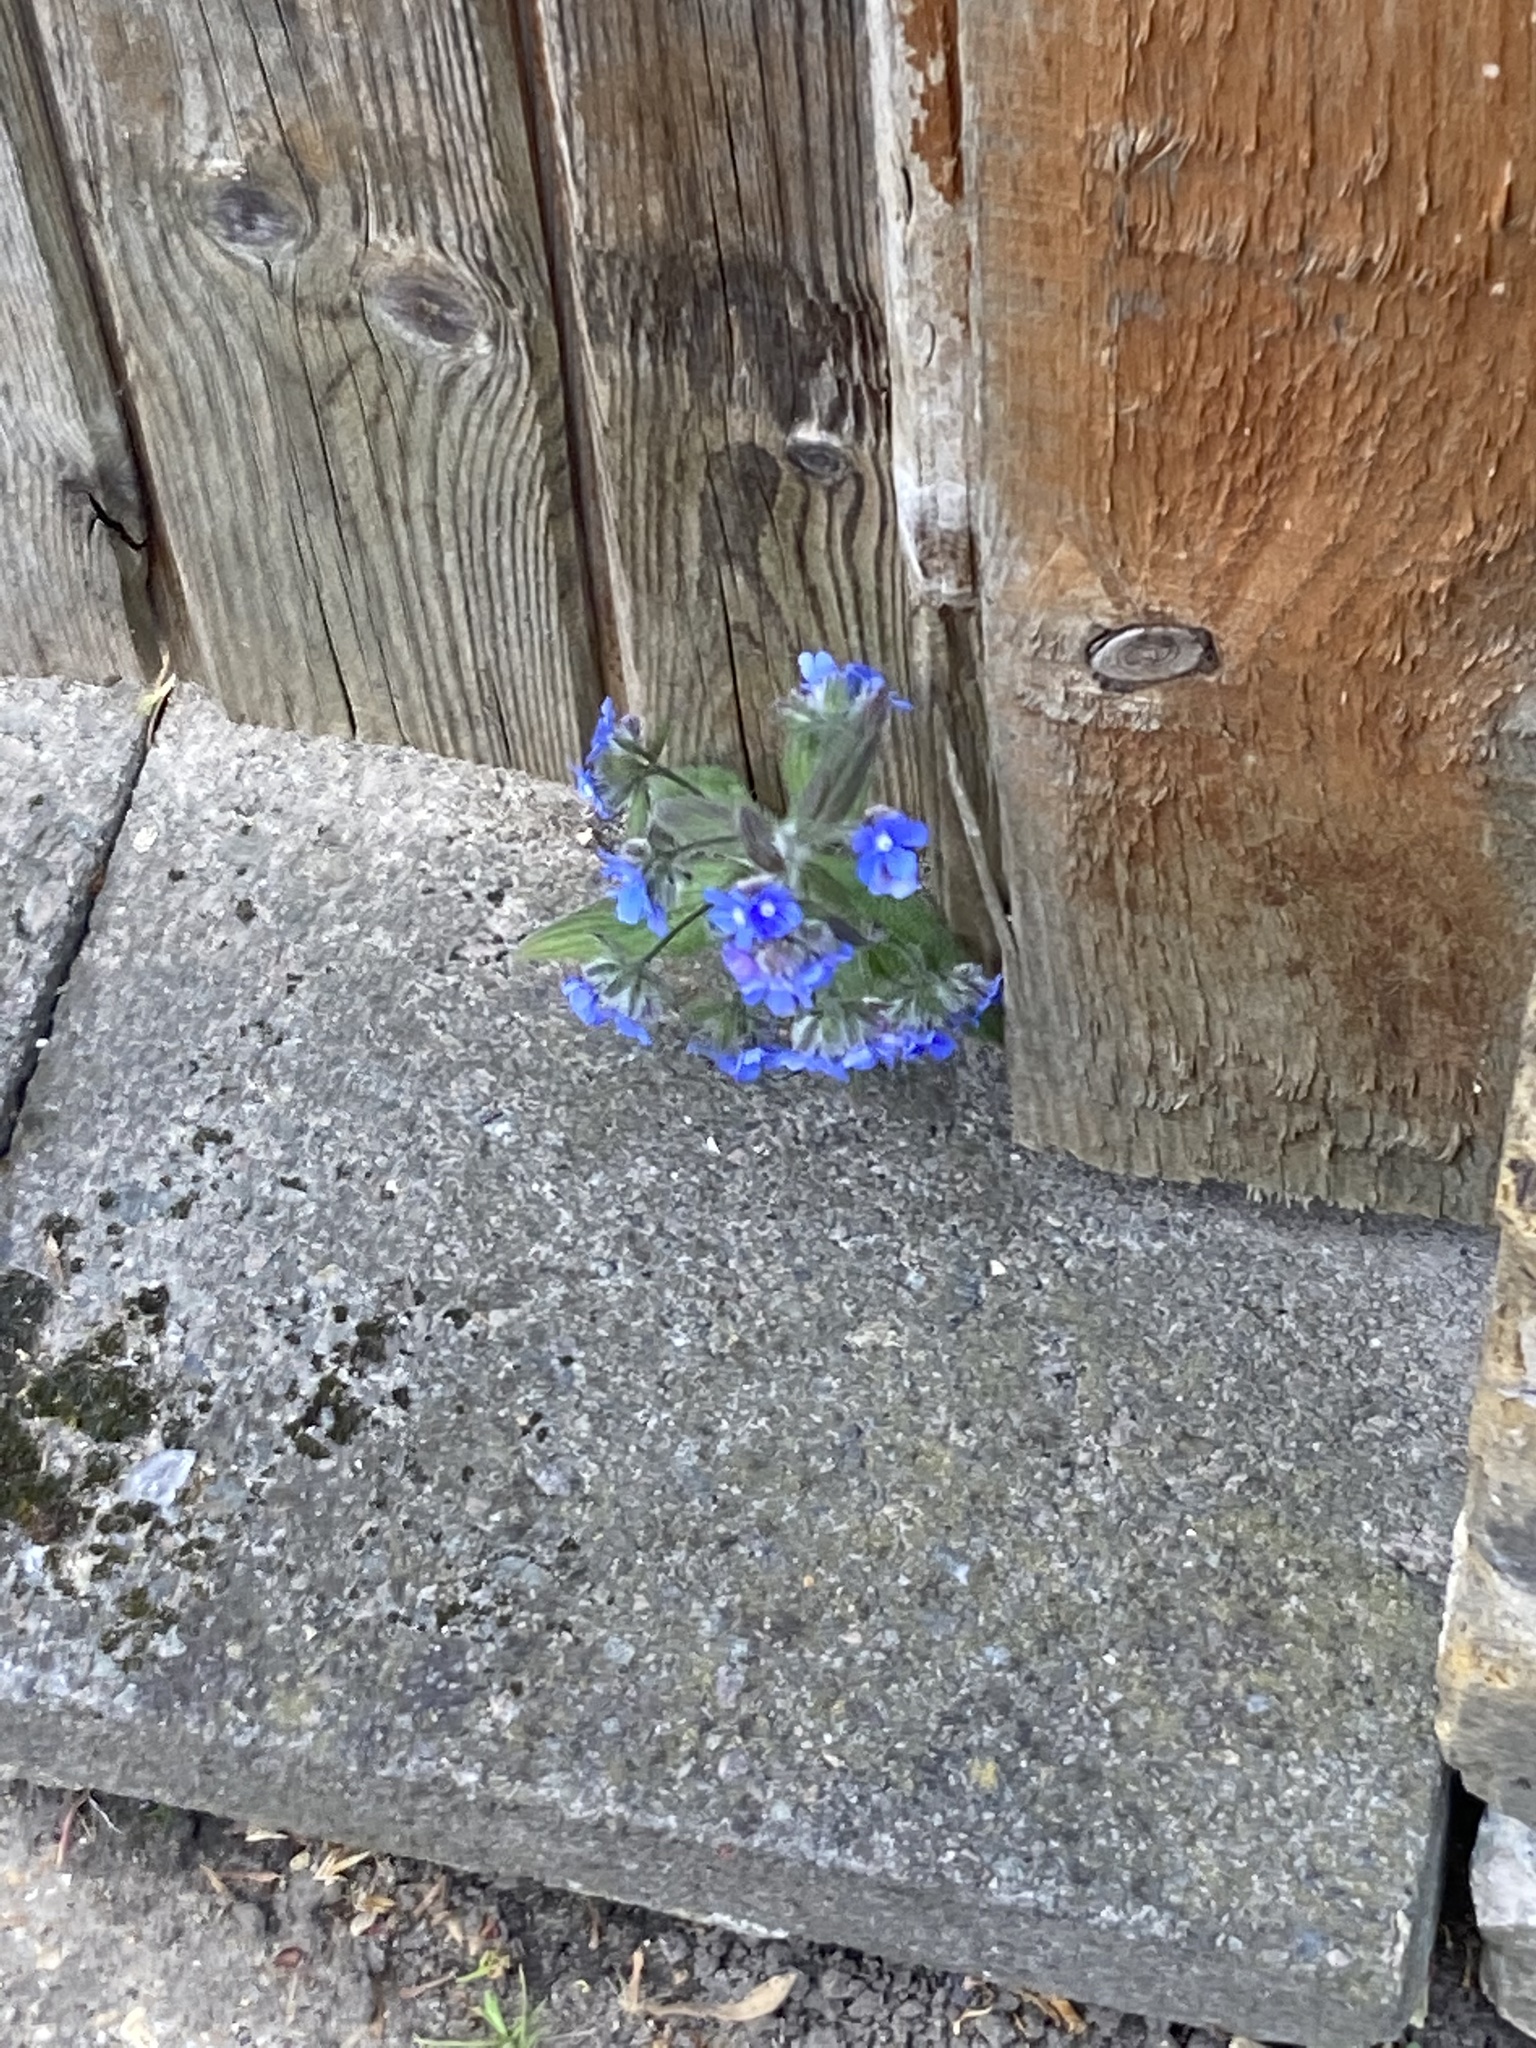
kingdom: Plantae
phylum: Tracheophyta
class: Magnoliopsida
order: Boraginales
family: Boraginaceae
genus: Pentaglottis
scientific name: Pentaglottis sempervirens
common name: Green alkanet
